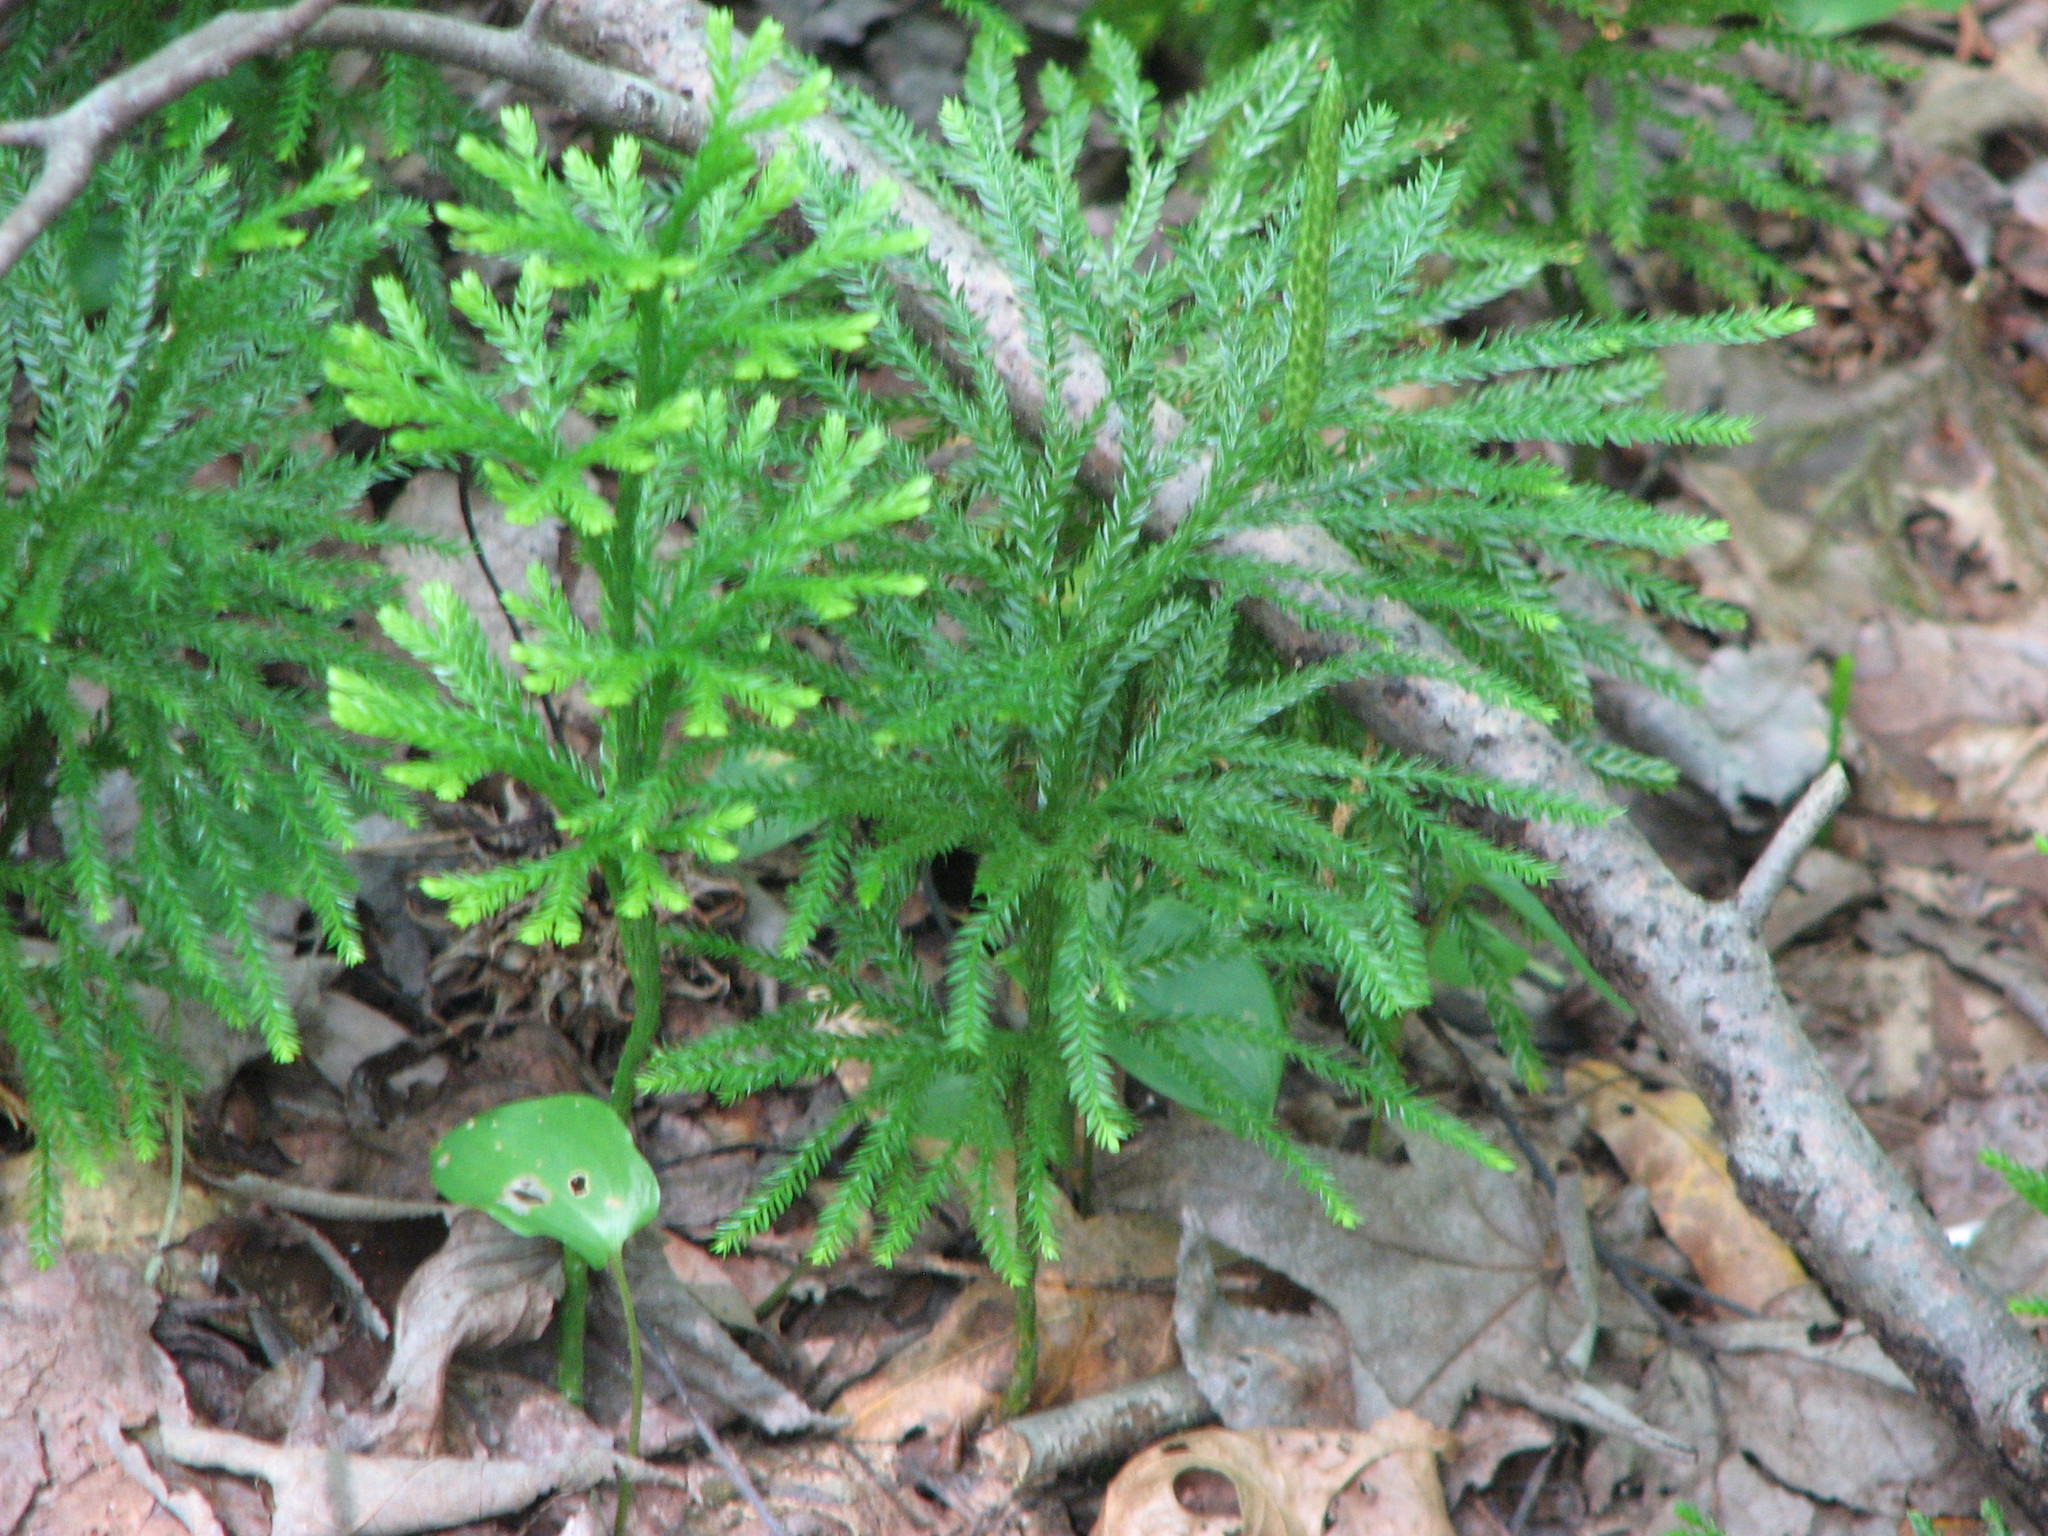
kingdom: Plantae
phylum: Tracheophyta
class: Lycopodiopsida
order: Lycopodiales
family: Lycopodiaceae
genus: Dendrolycopodium
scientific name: Dendrolycopodium obscurum
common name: Common ground-pine
